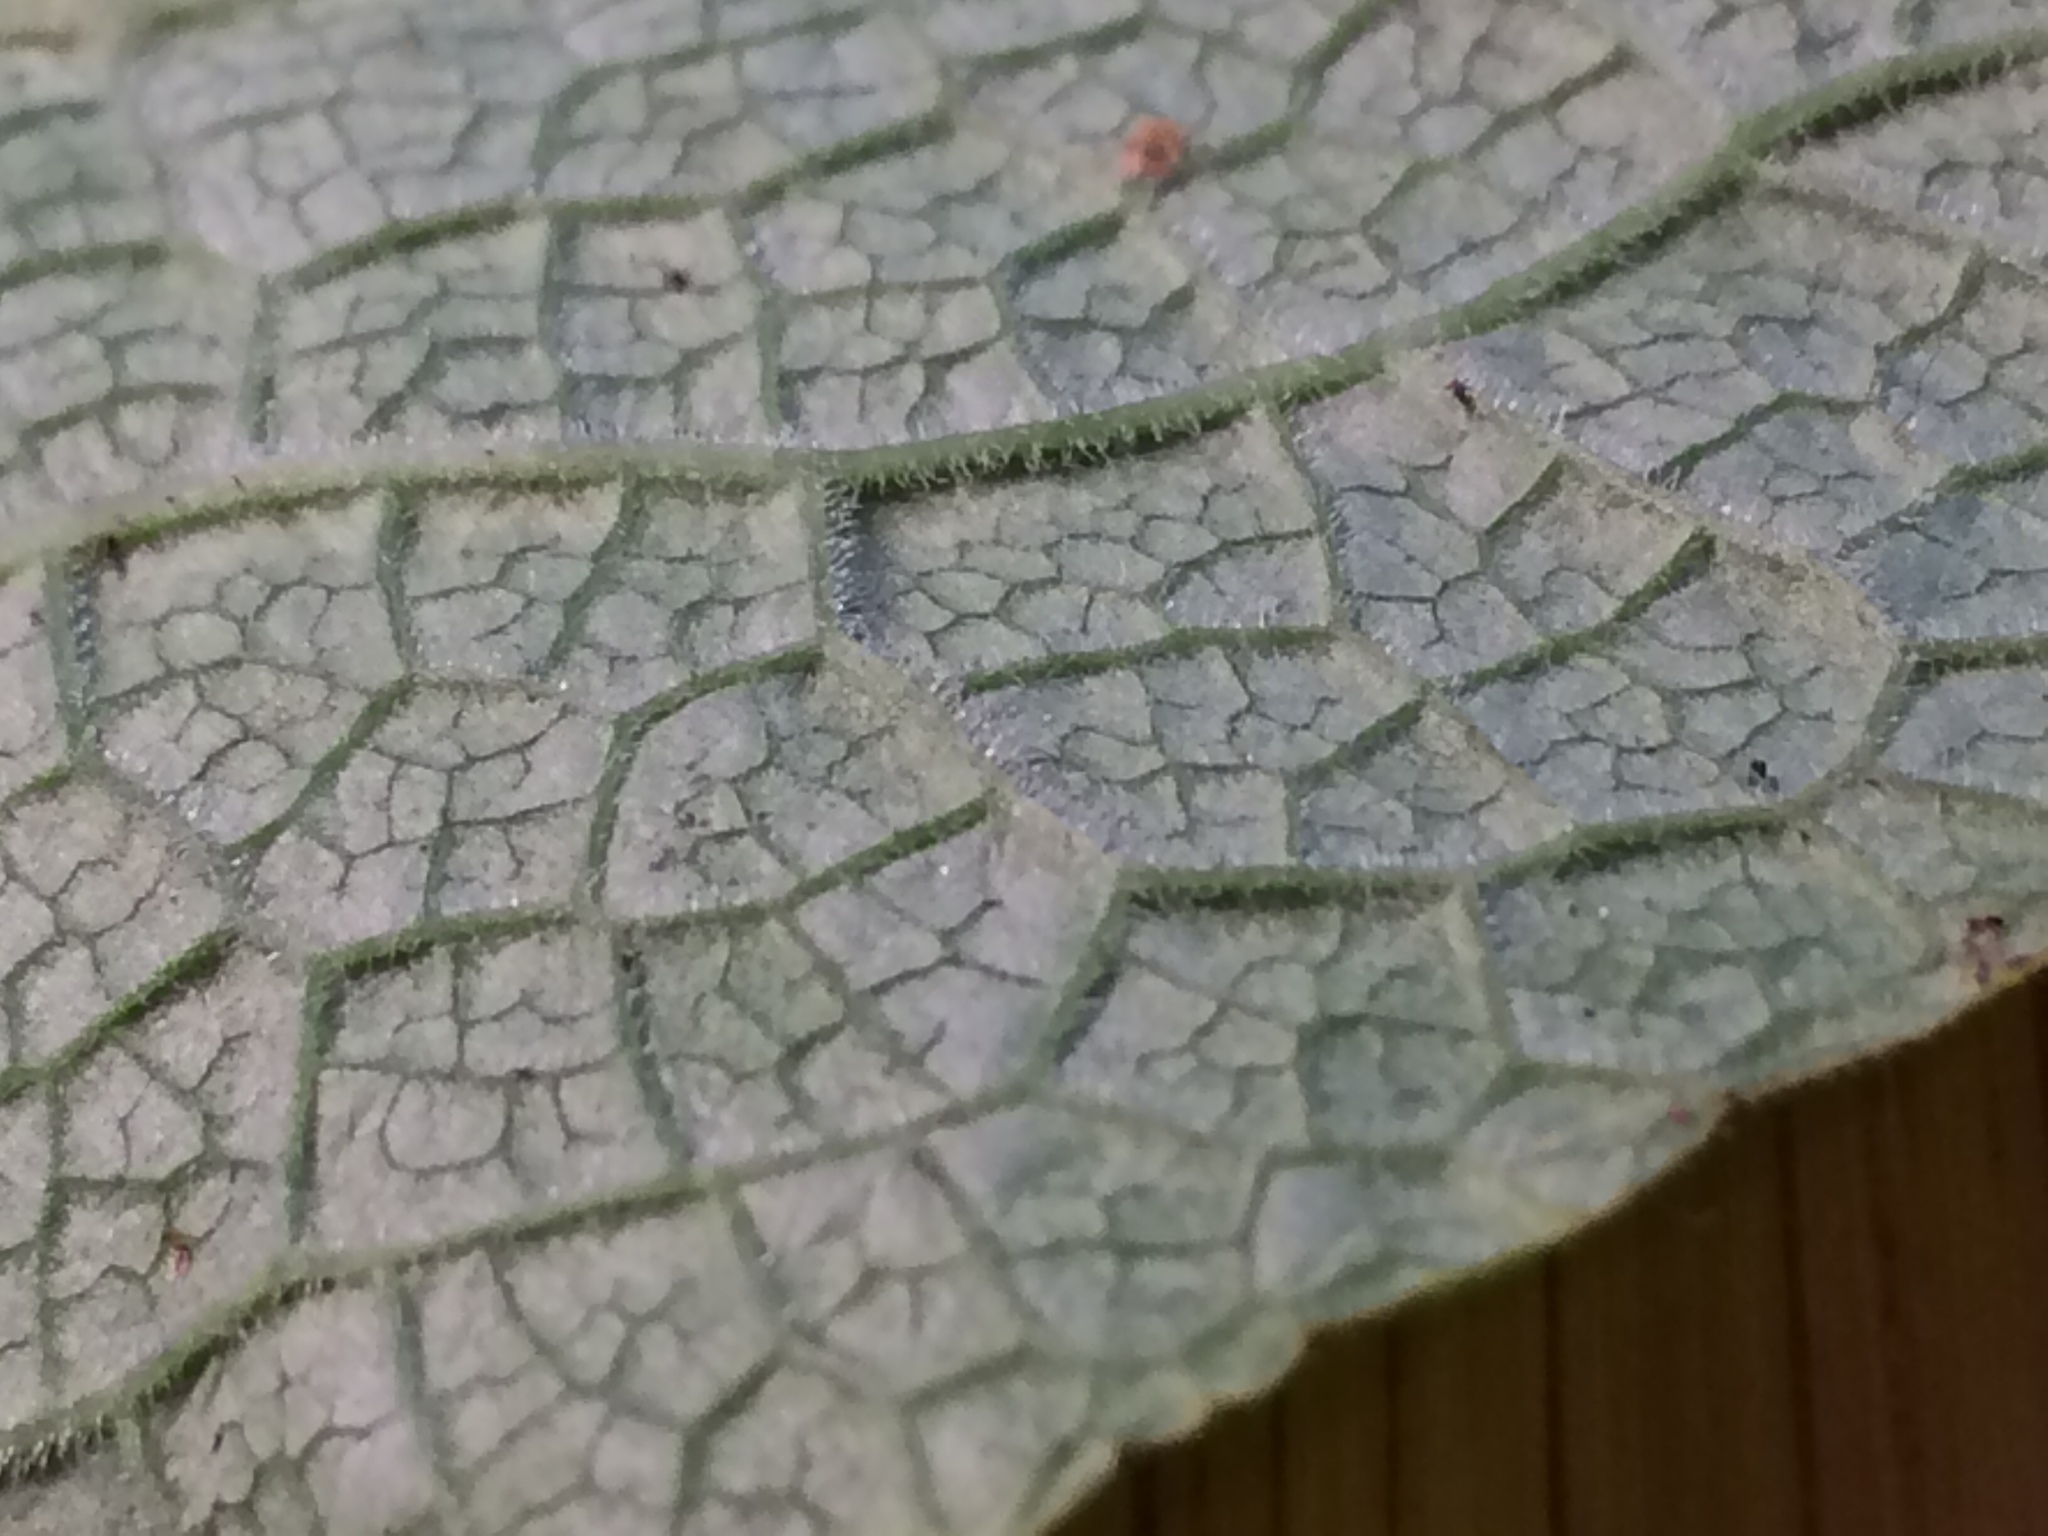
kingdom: Plantae
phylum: Tracheophyta
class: Magnoliopsida
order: Lamiales
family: Plantaginaceae
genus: Digitalis
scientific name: Digitalis purpurea
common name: Foxglove
